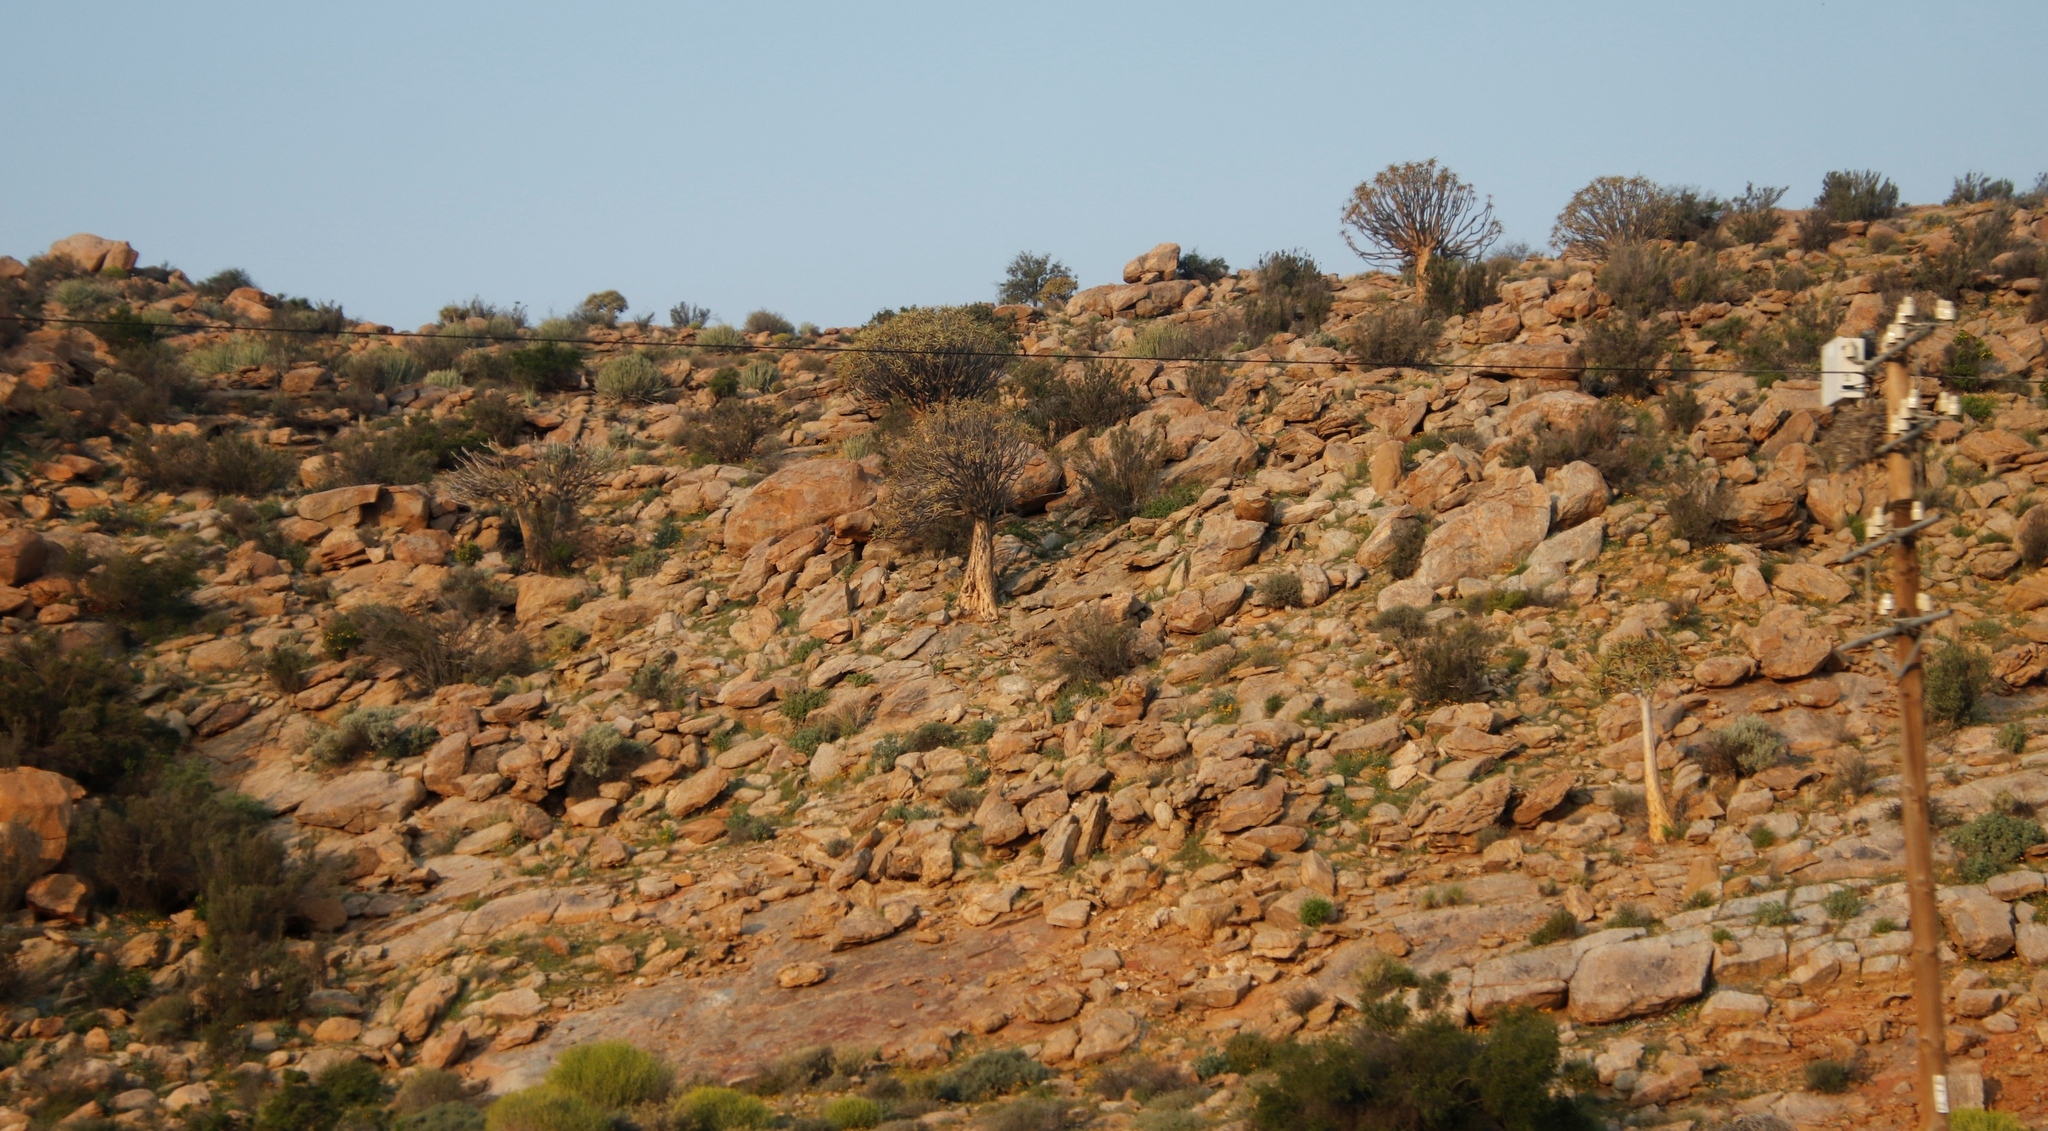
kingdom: Plantae
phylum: Tracheophyta
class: Liliopsida
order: Asparagales
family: Asphodelaceae
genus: Aloidendron
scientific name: Aloidendron dichotomum
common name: Quiver tree
